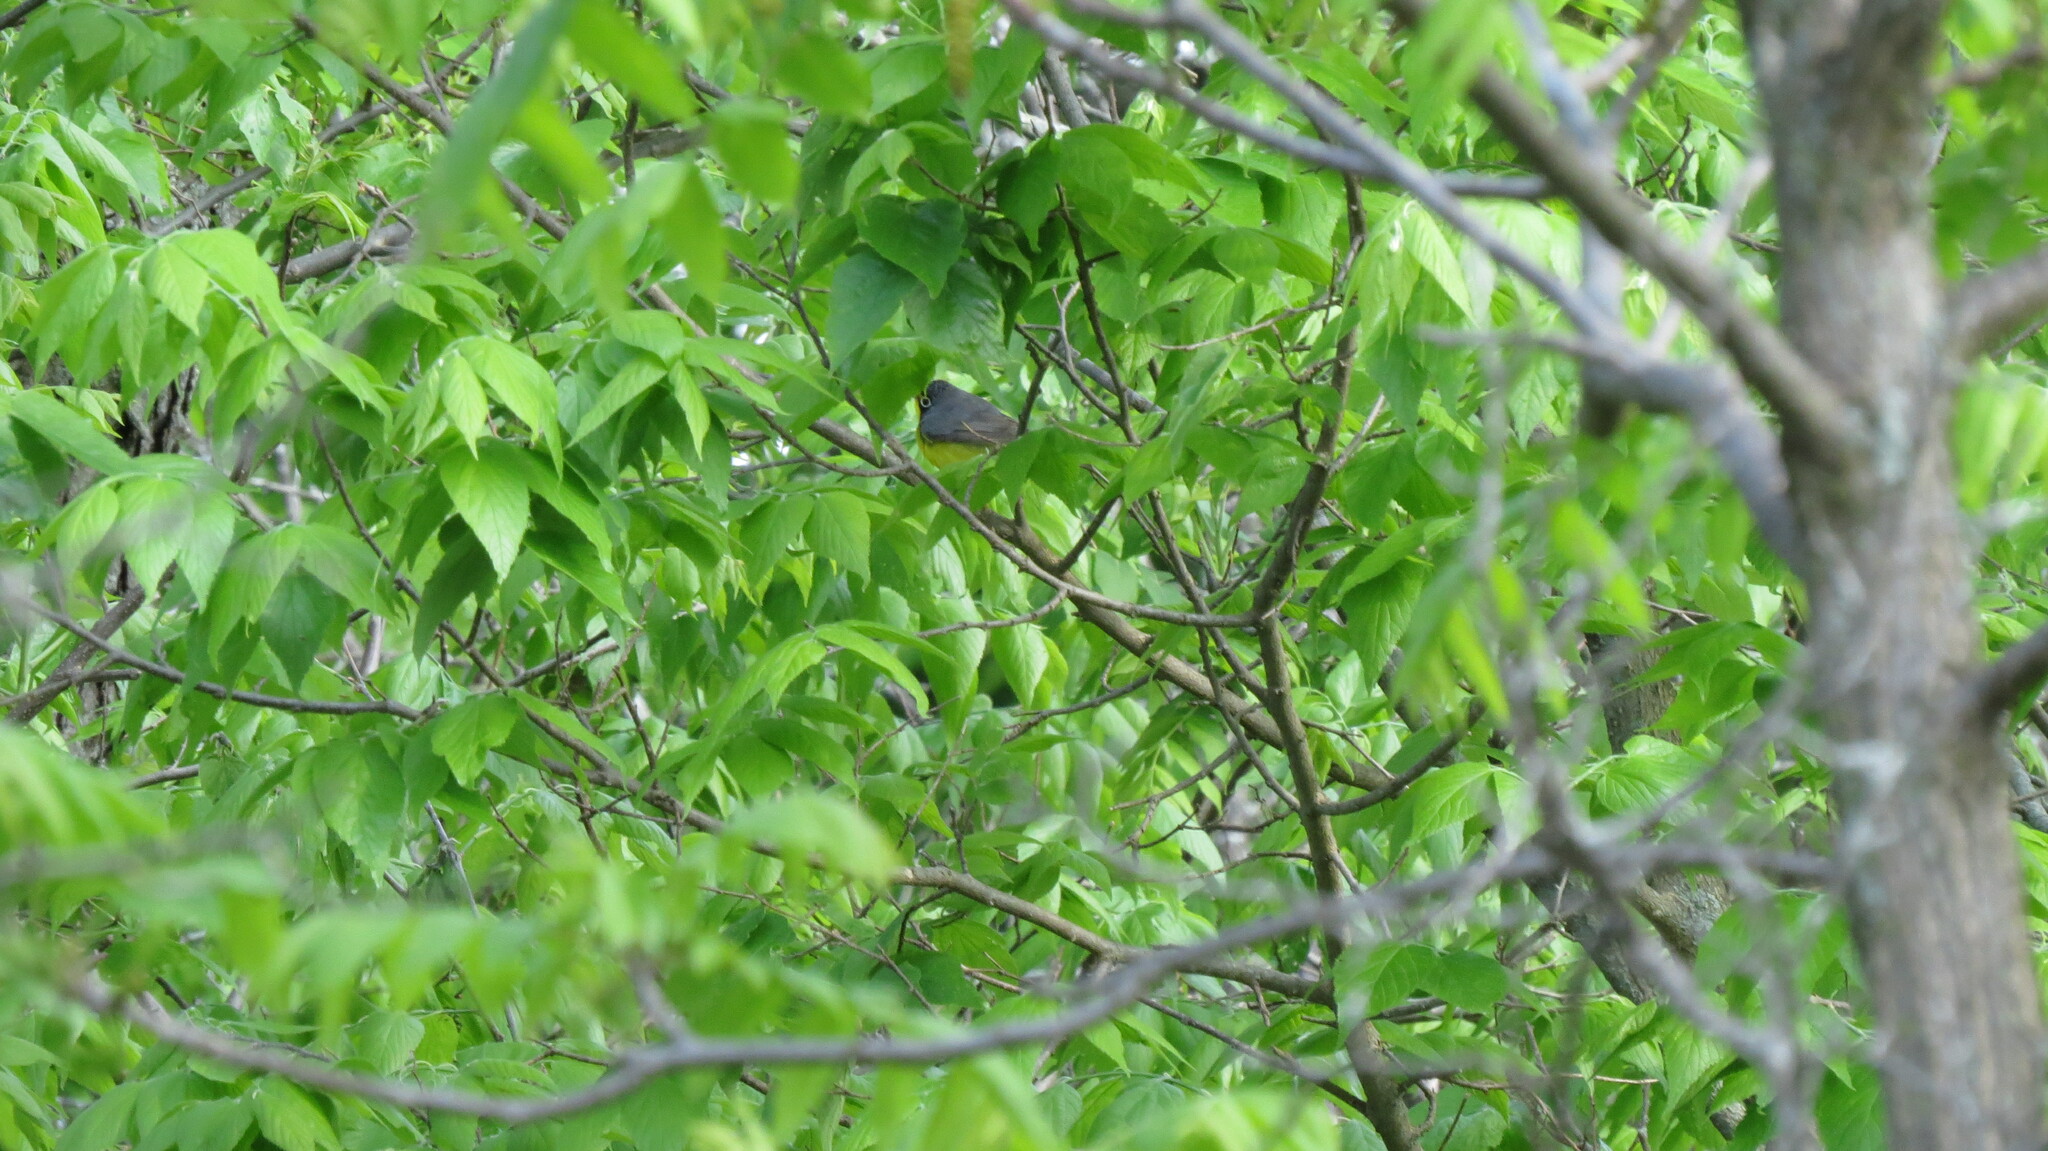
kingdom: Animalia
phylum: Chordata
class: Aves
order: Passeriformes
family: Parulidae
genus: Cardellina
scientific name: Cardellina canadensis
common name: Canada warbler
